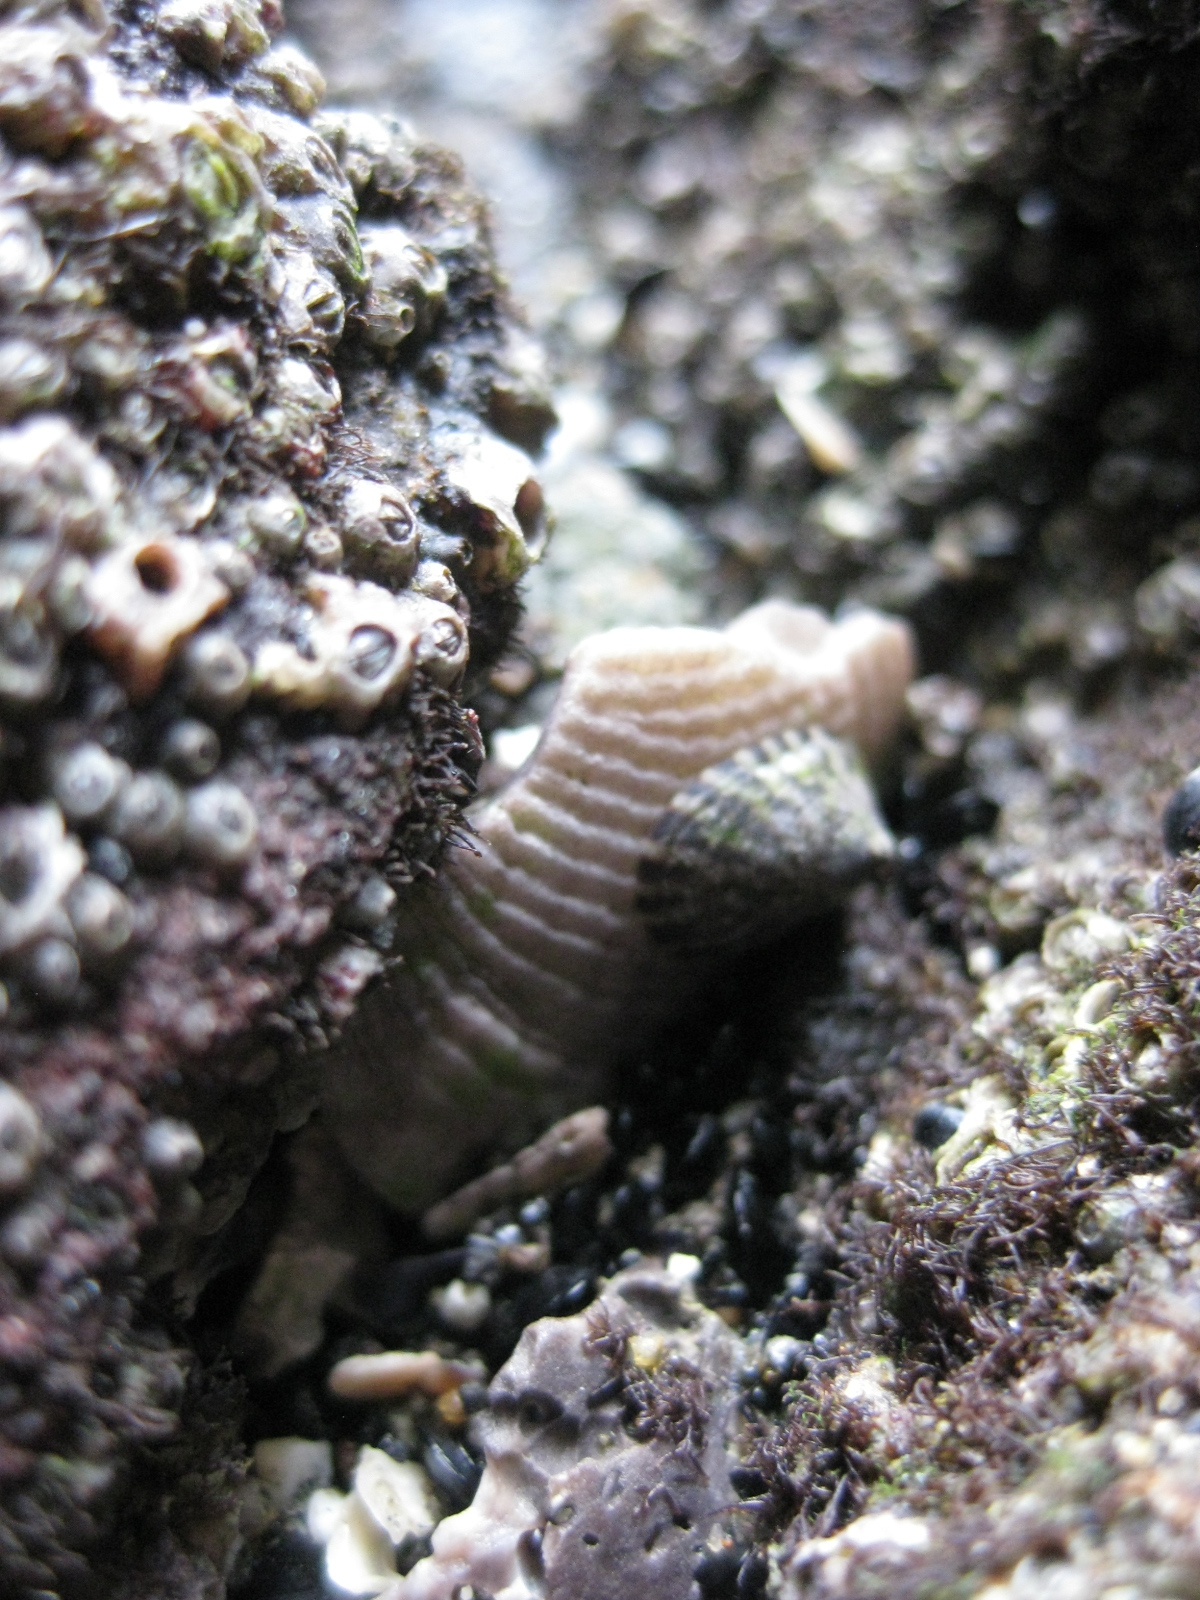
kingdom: Animalia
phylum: Mollusca
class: Gastropoda
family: Lottiidae
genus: Notoacmea
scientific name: Notoacmea parviconoidea
